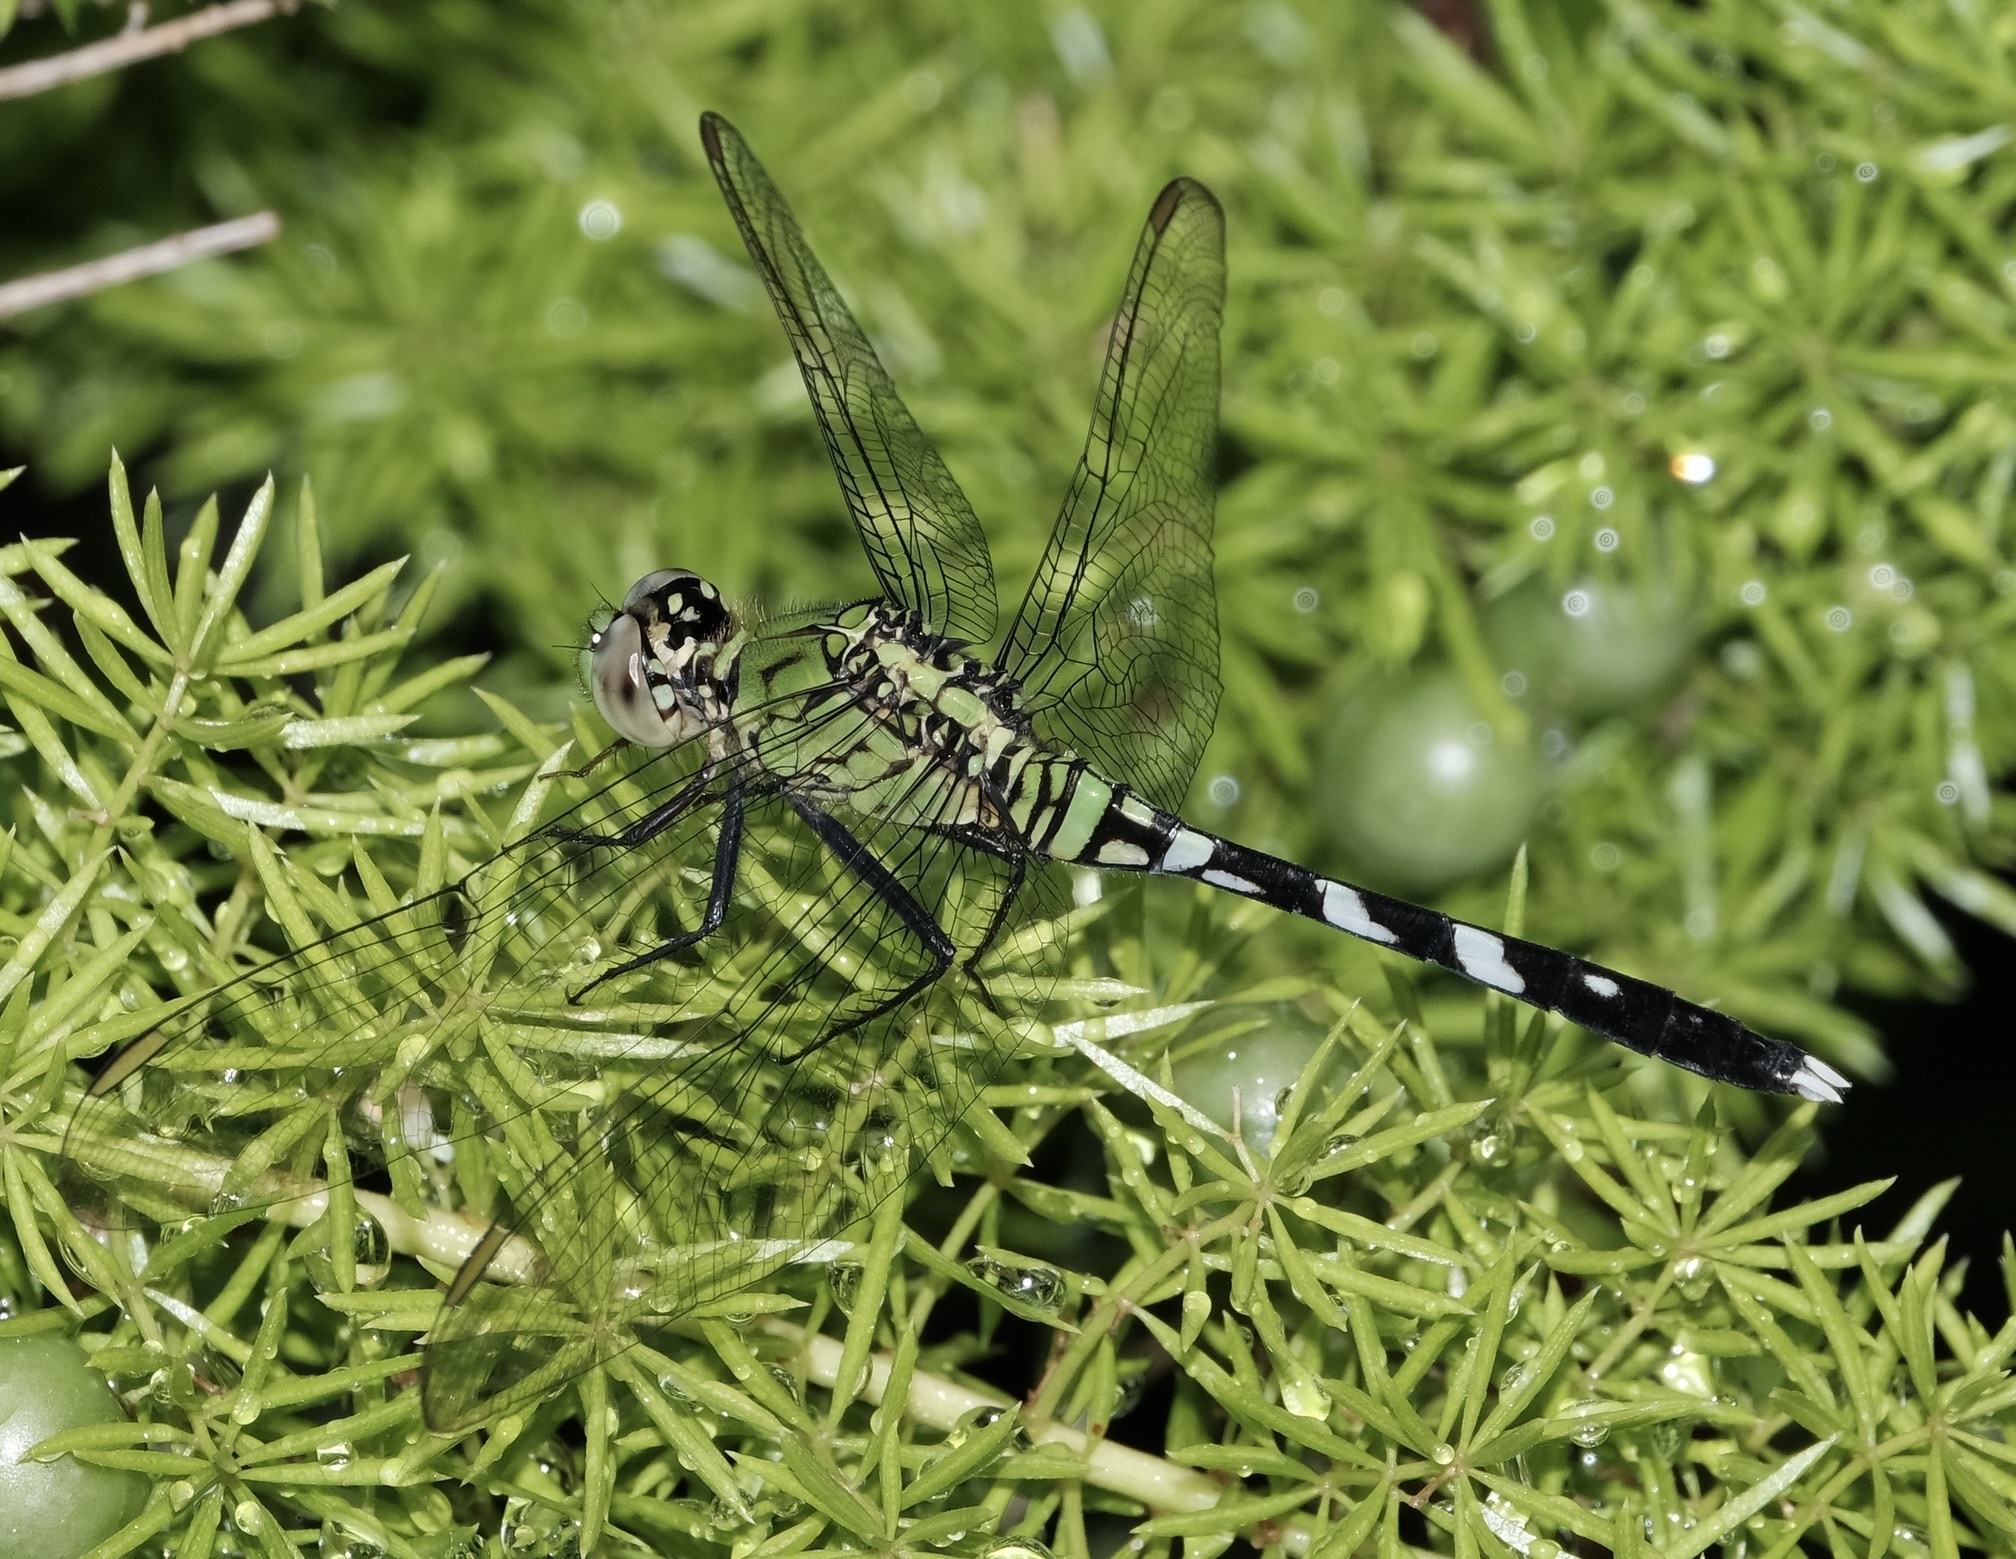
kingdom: Animalia
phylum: Arthropoda
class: Insecta
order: Odonata
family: Libellulidae
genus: Erythemis
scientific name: Erythemis simplicicollis
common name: Eastern pondhawk
